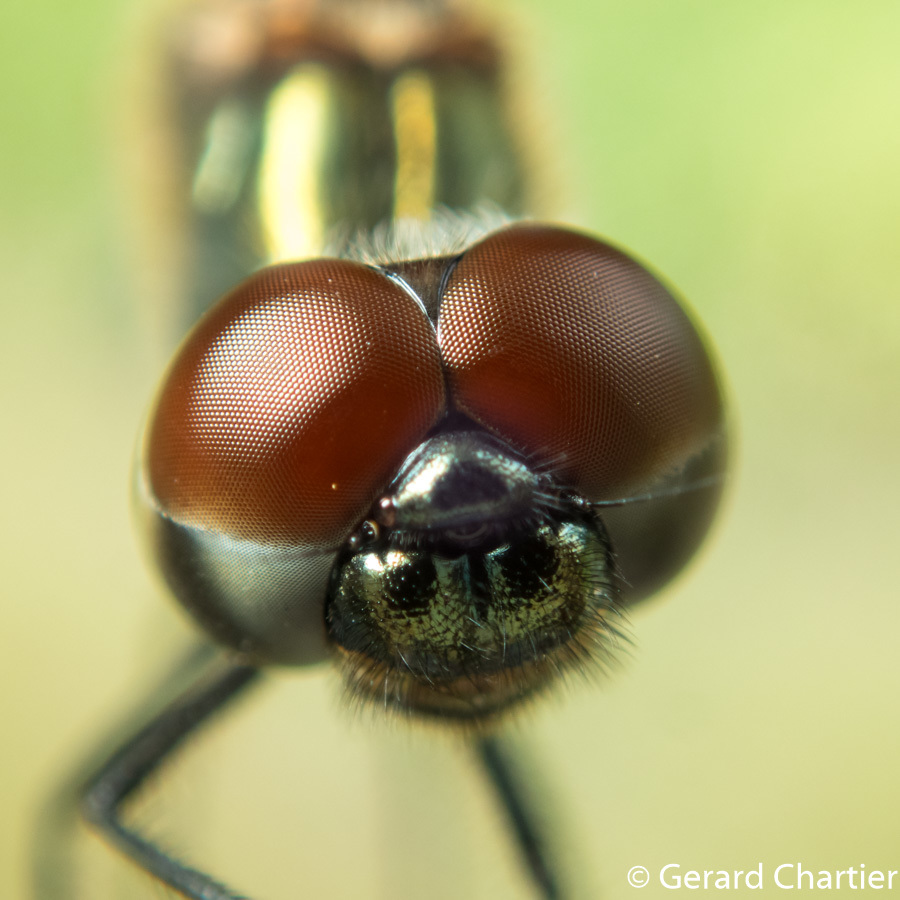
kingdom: Animalia
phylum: Arthropoda
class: Insecta
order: Odonata
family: Libellulidae
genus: Rhyothemis
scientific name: Rhyothemis variegata
